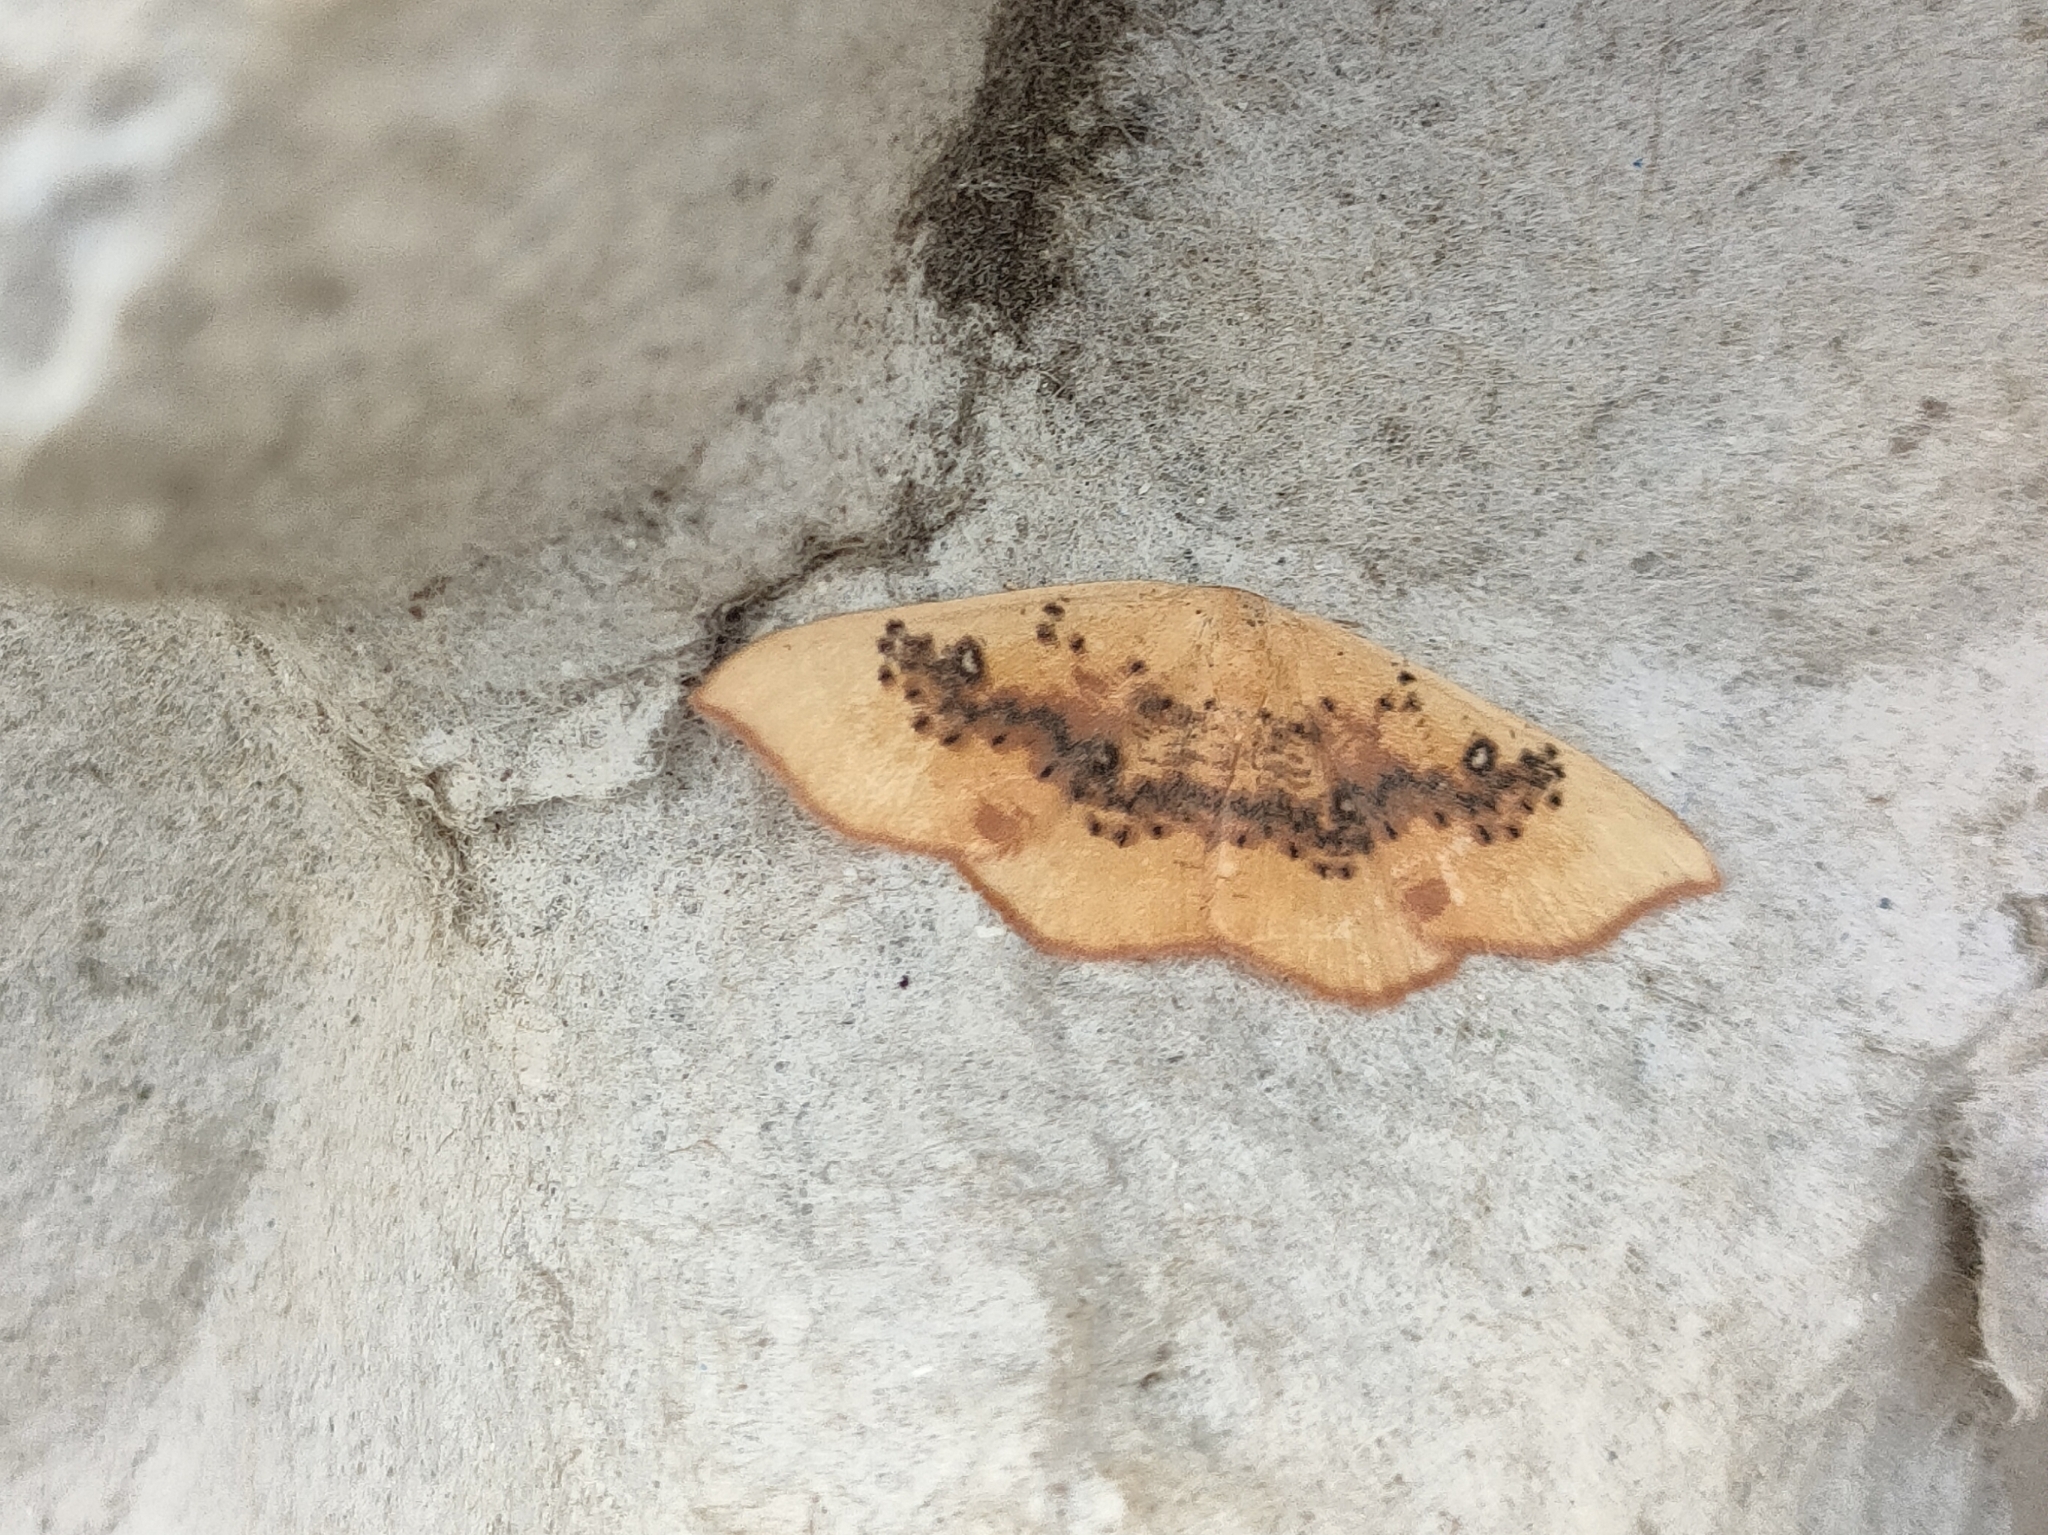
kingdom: Animalia
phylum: Arthropoda
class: Insecta
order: Lepidoptera
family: Geometridae
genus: Cyclophora
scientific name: Cyclophora lennigiaria
